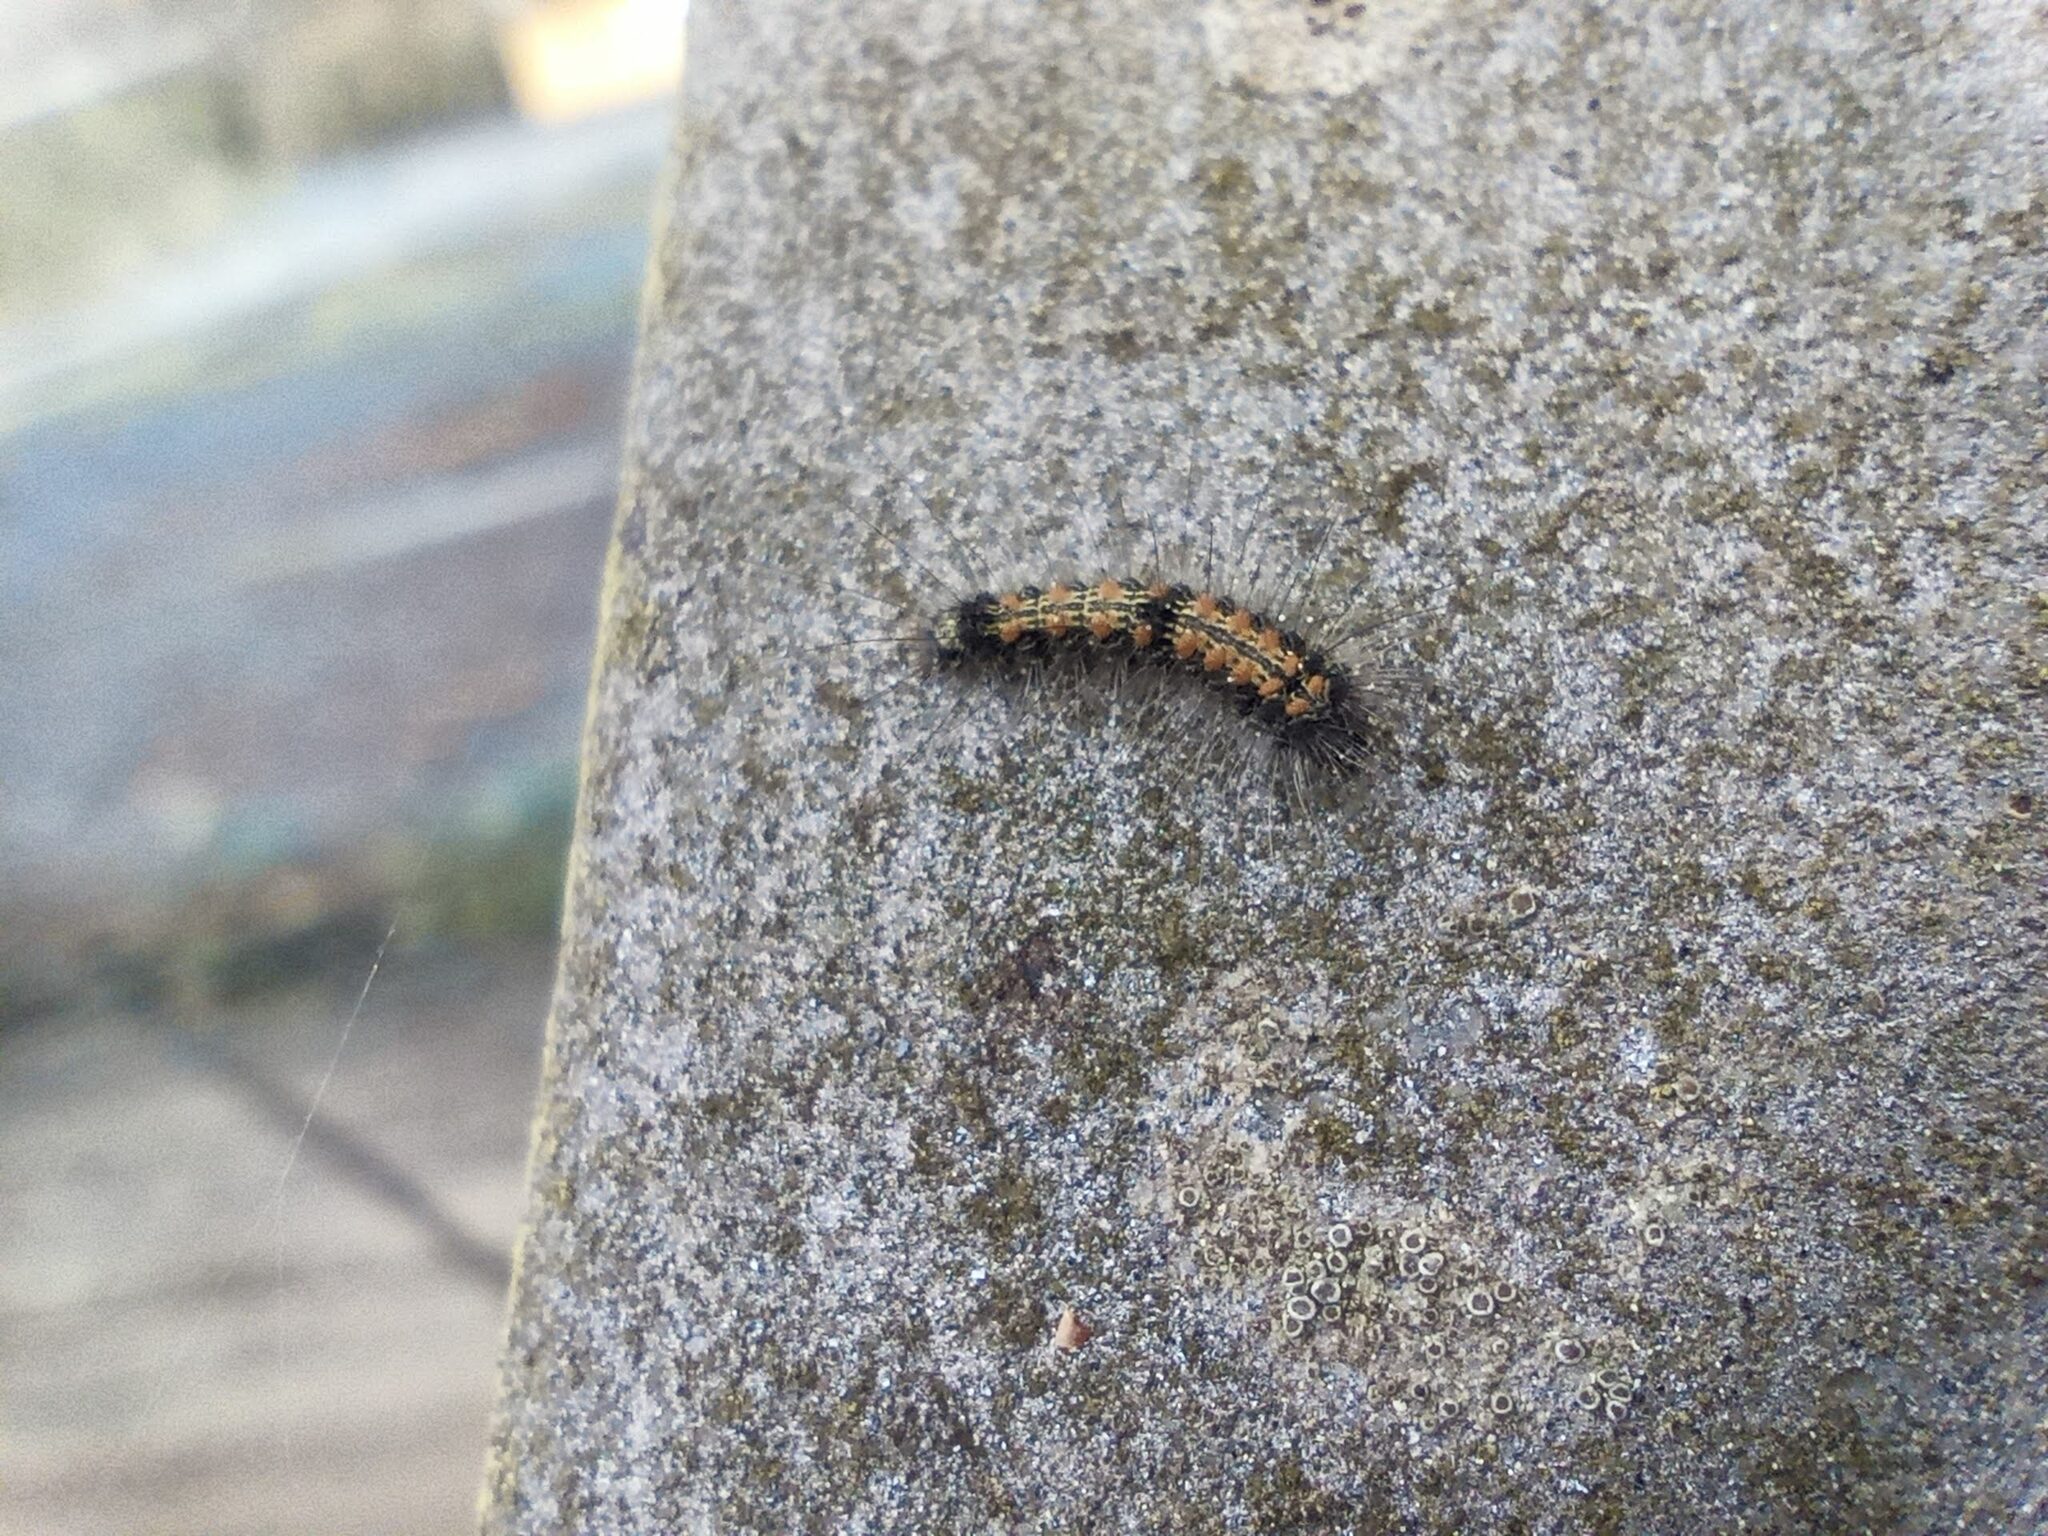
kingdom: Animalia
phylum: Arthropoda
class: Insecta
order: Lepidoptera
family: Erebidae
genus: Lithosia
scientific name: Lithosia quadra
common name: Four-spotted footman
